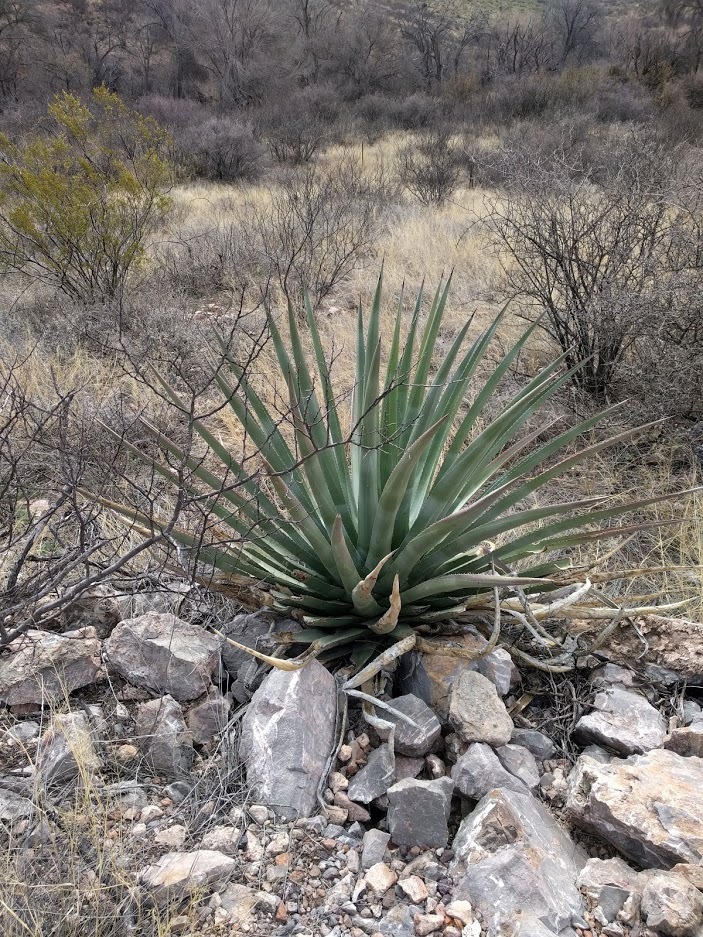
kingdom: Plantae
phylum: Tracheophyta
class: Liliopsida
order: Asparagales
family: Asparagaceae
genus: Agave
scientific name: Agave palmeri
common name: Palmer agave
